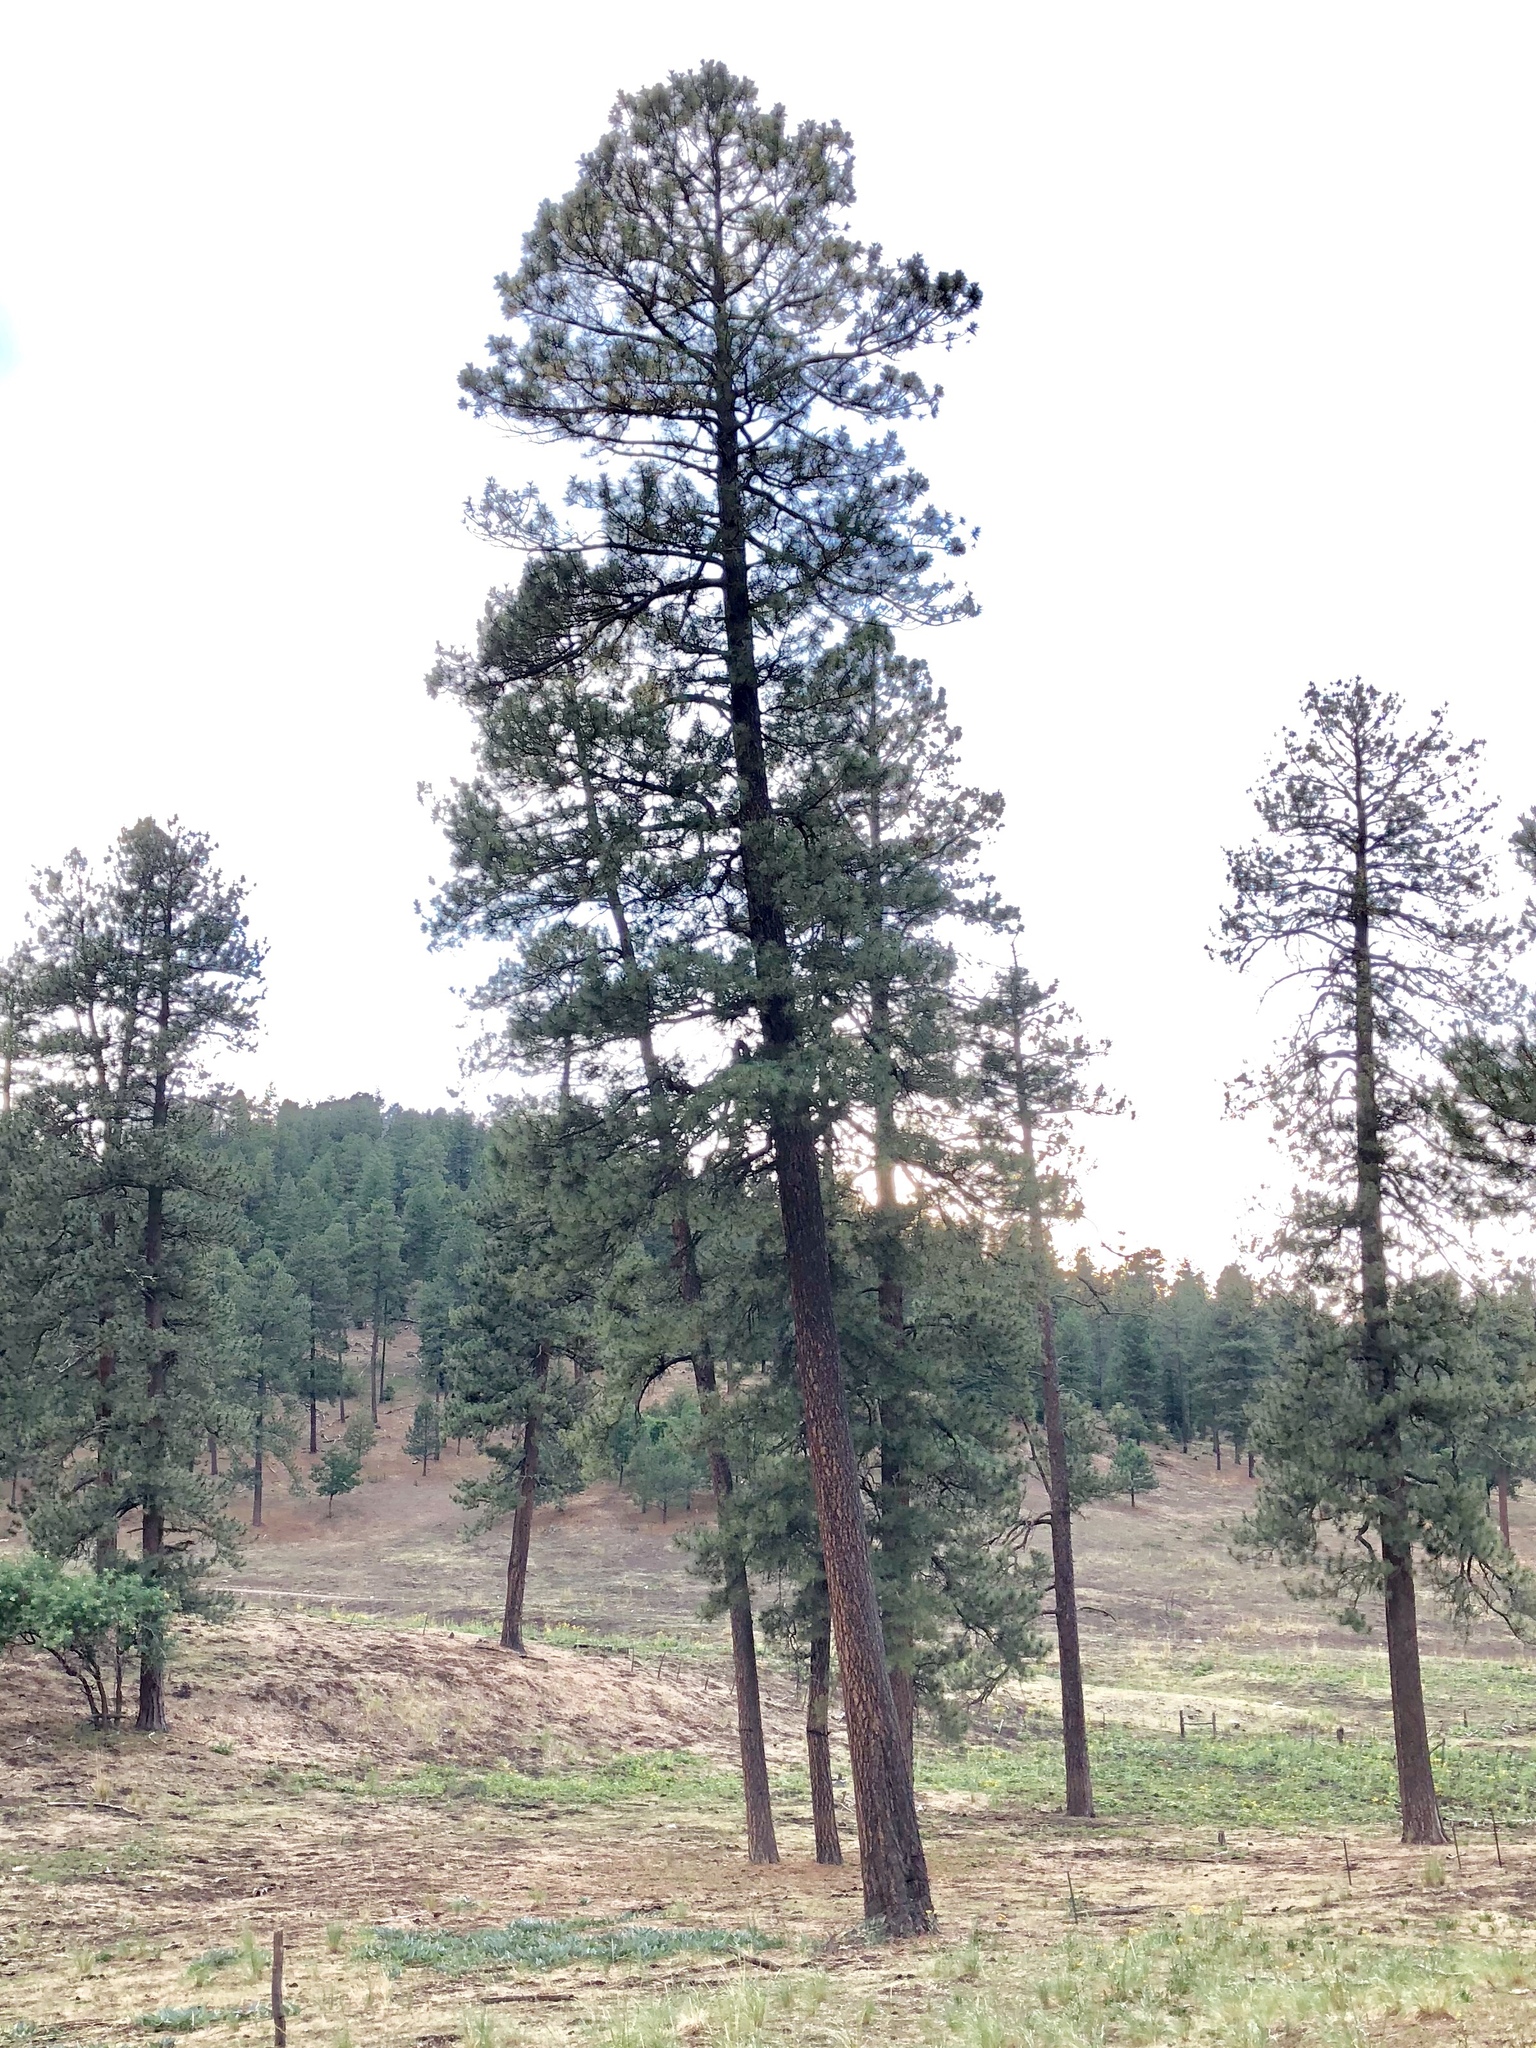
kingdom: Plantae
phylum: Tracheophyta
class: Pinopsida
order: Pinales
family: Pinaceae
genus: Pinus
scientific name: Pinus ponderosa
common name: Western yellow-pine
